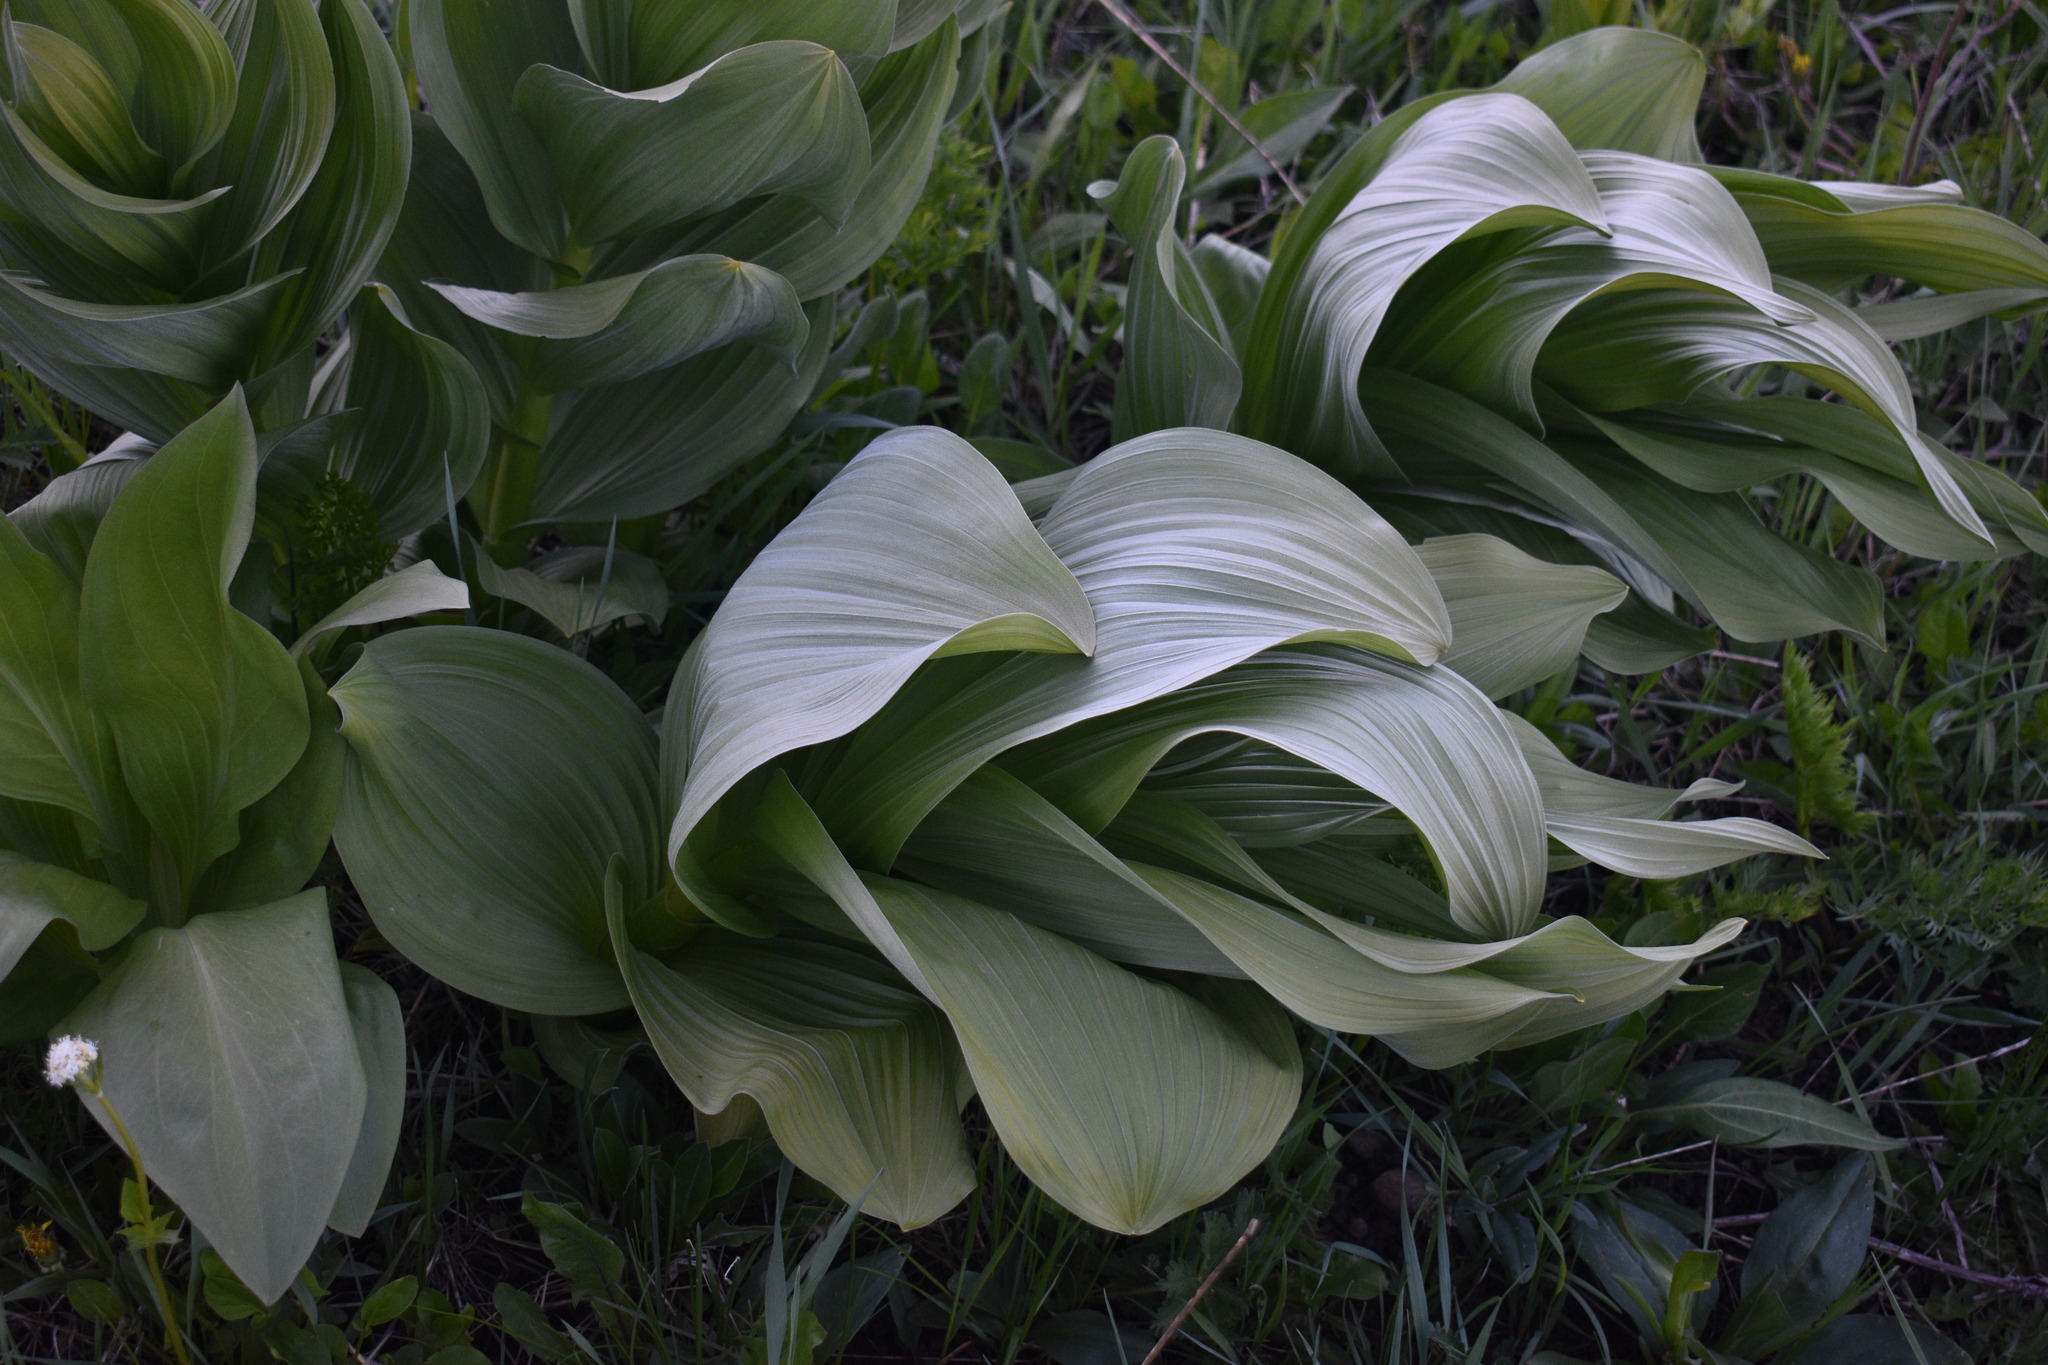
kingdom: Plantae
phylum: Tracheophyta
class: Liliopsida
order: Liliales
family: Melanthiaceae
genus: Veratrum
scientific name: Veratrum californicum
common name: California veratrum
